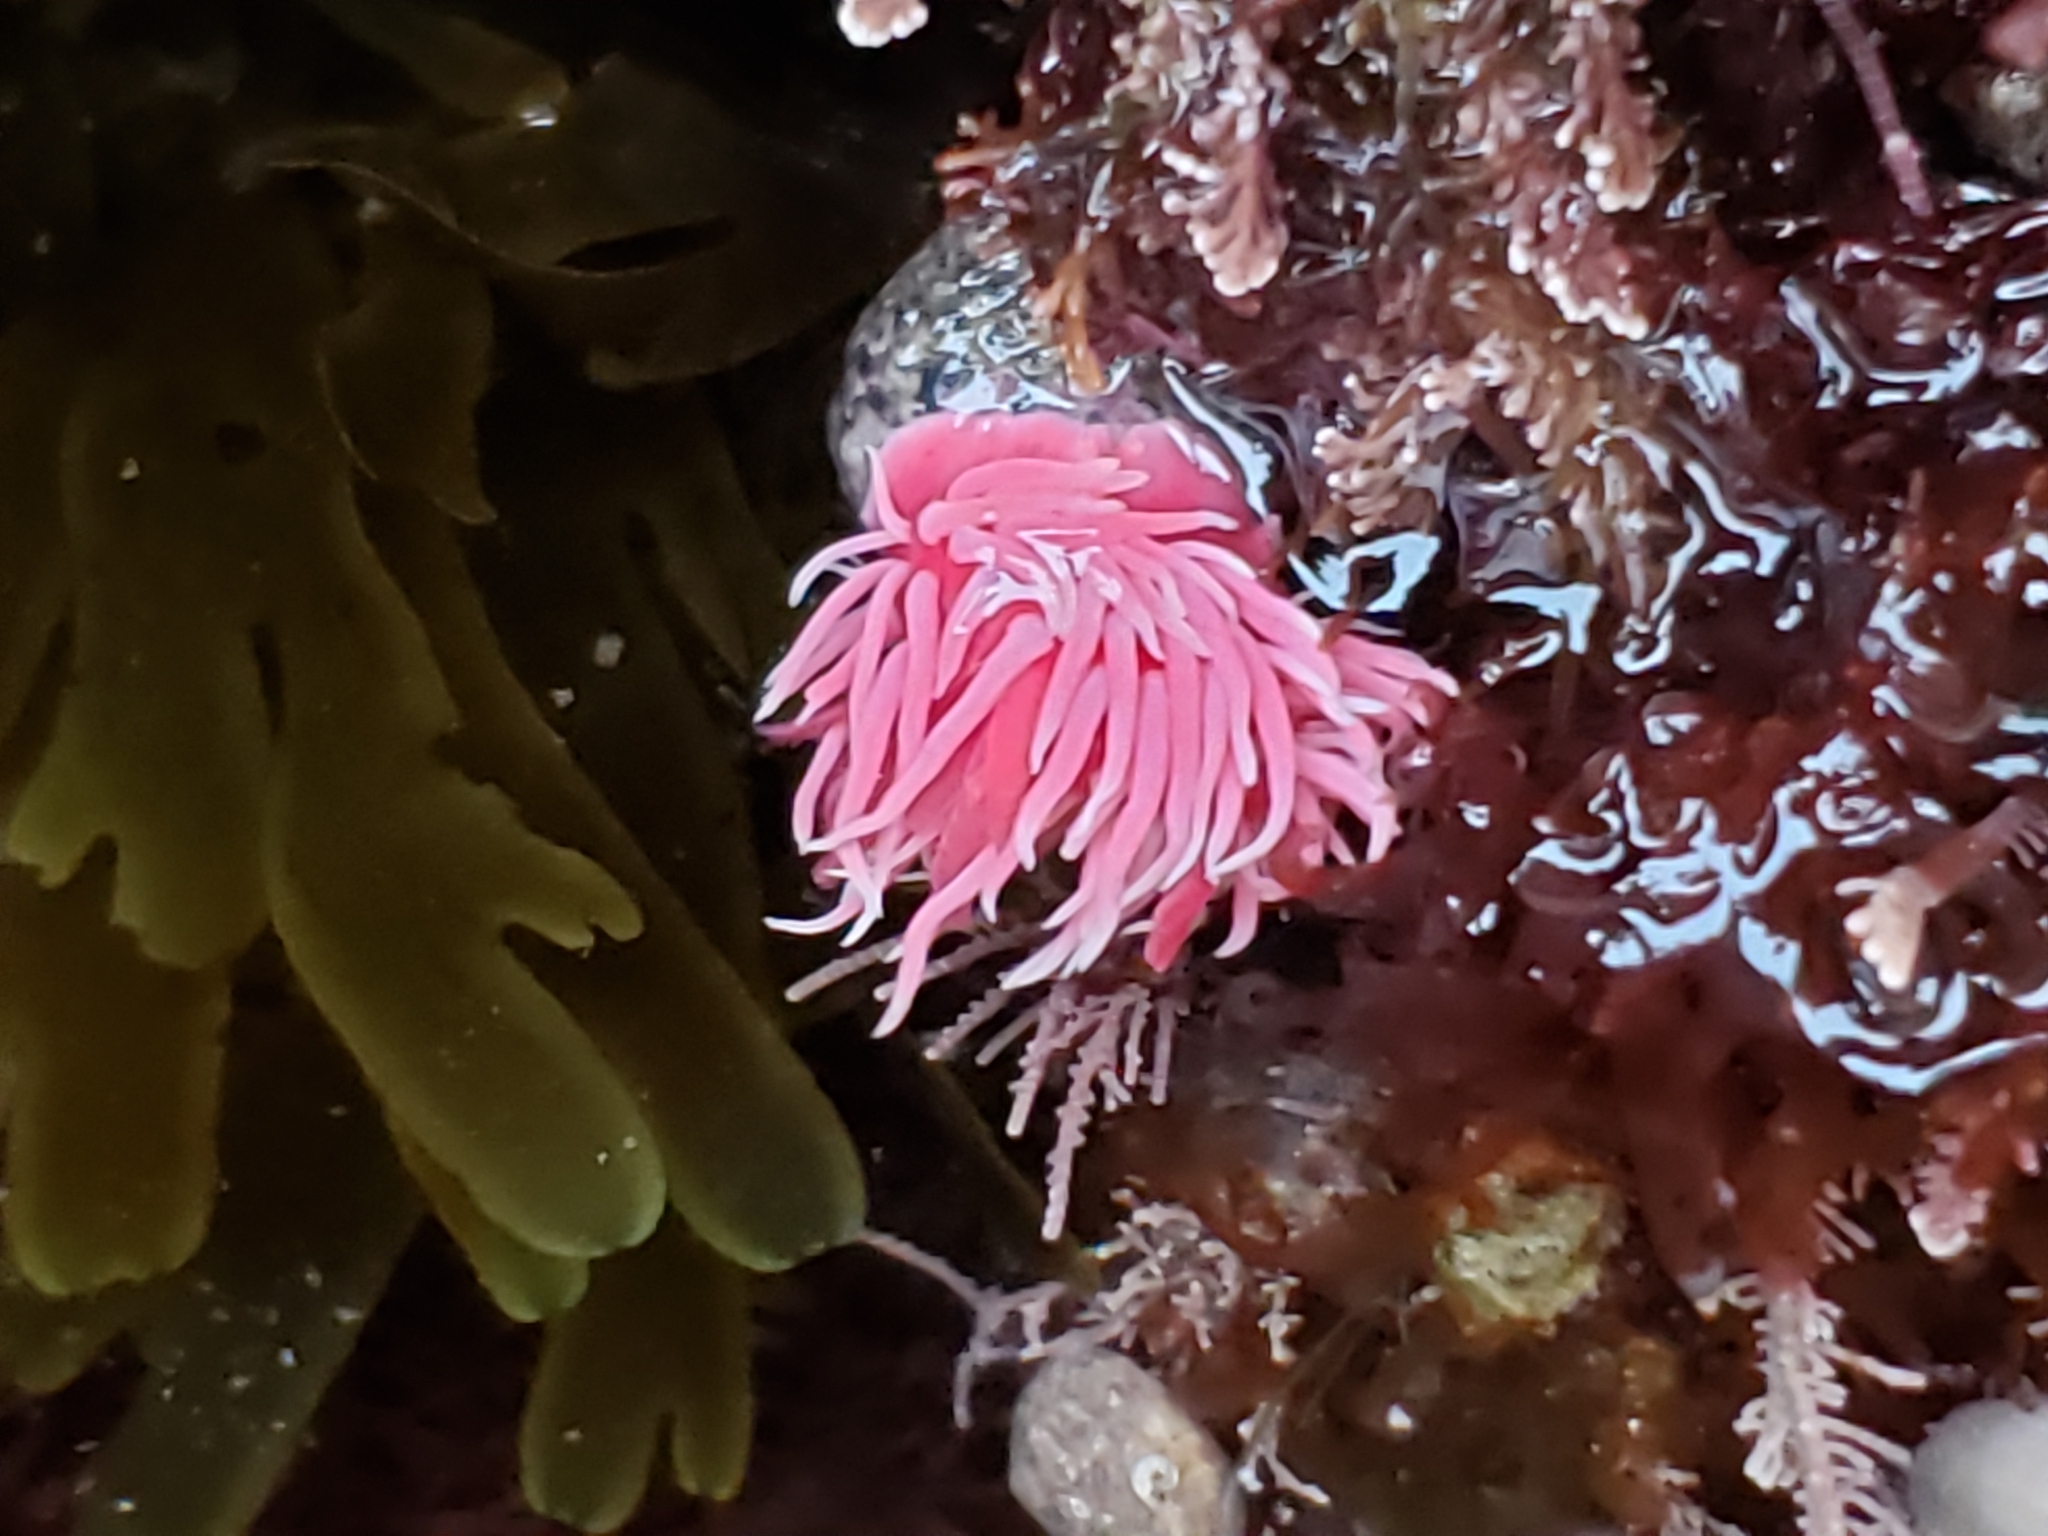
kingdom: Animalia
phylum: Mollusca
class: Gastropoda
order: Nudibranchia
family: Goniodorididae
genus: Okenia
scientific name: Okenia
